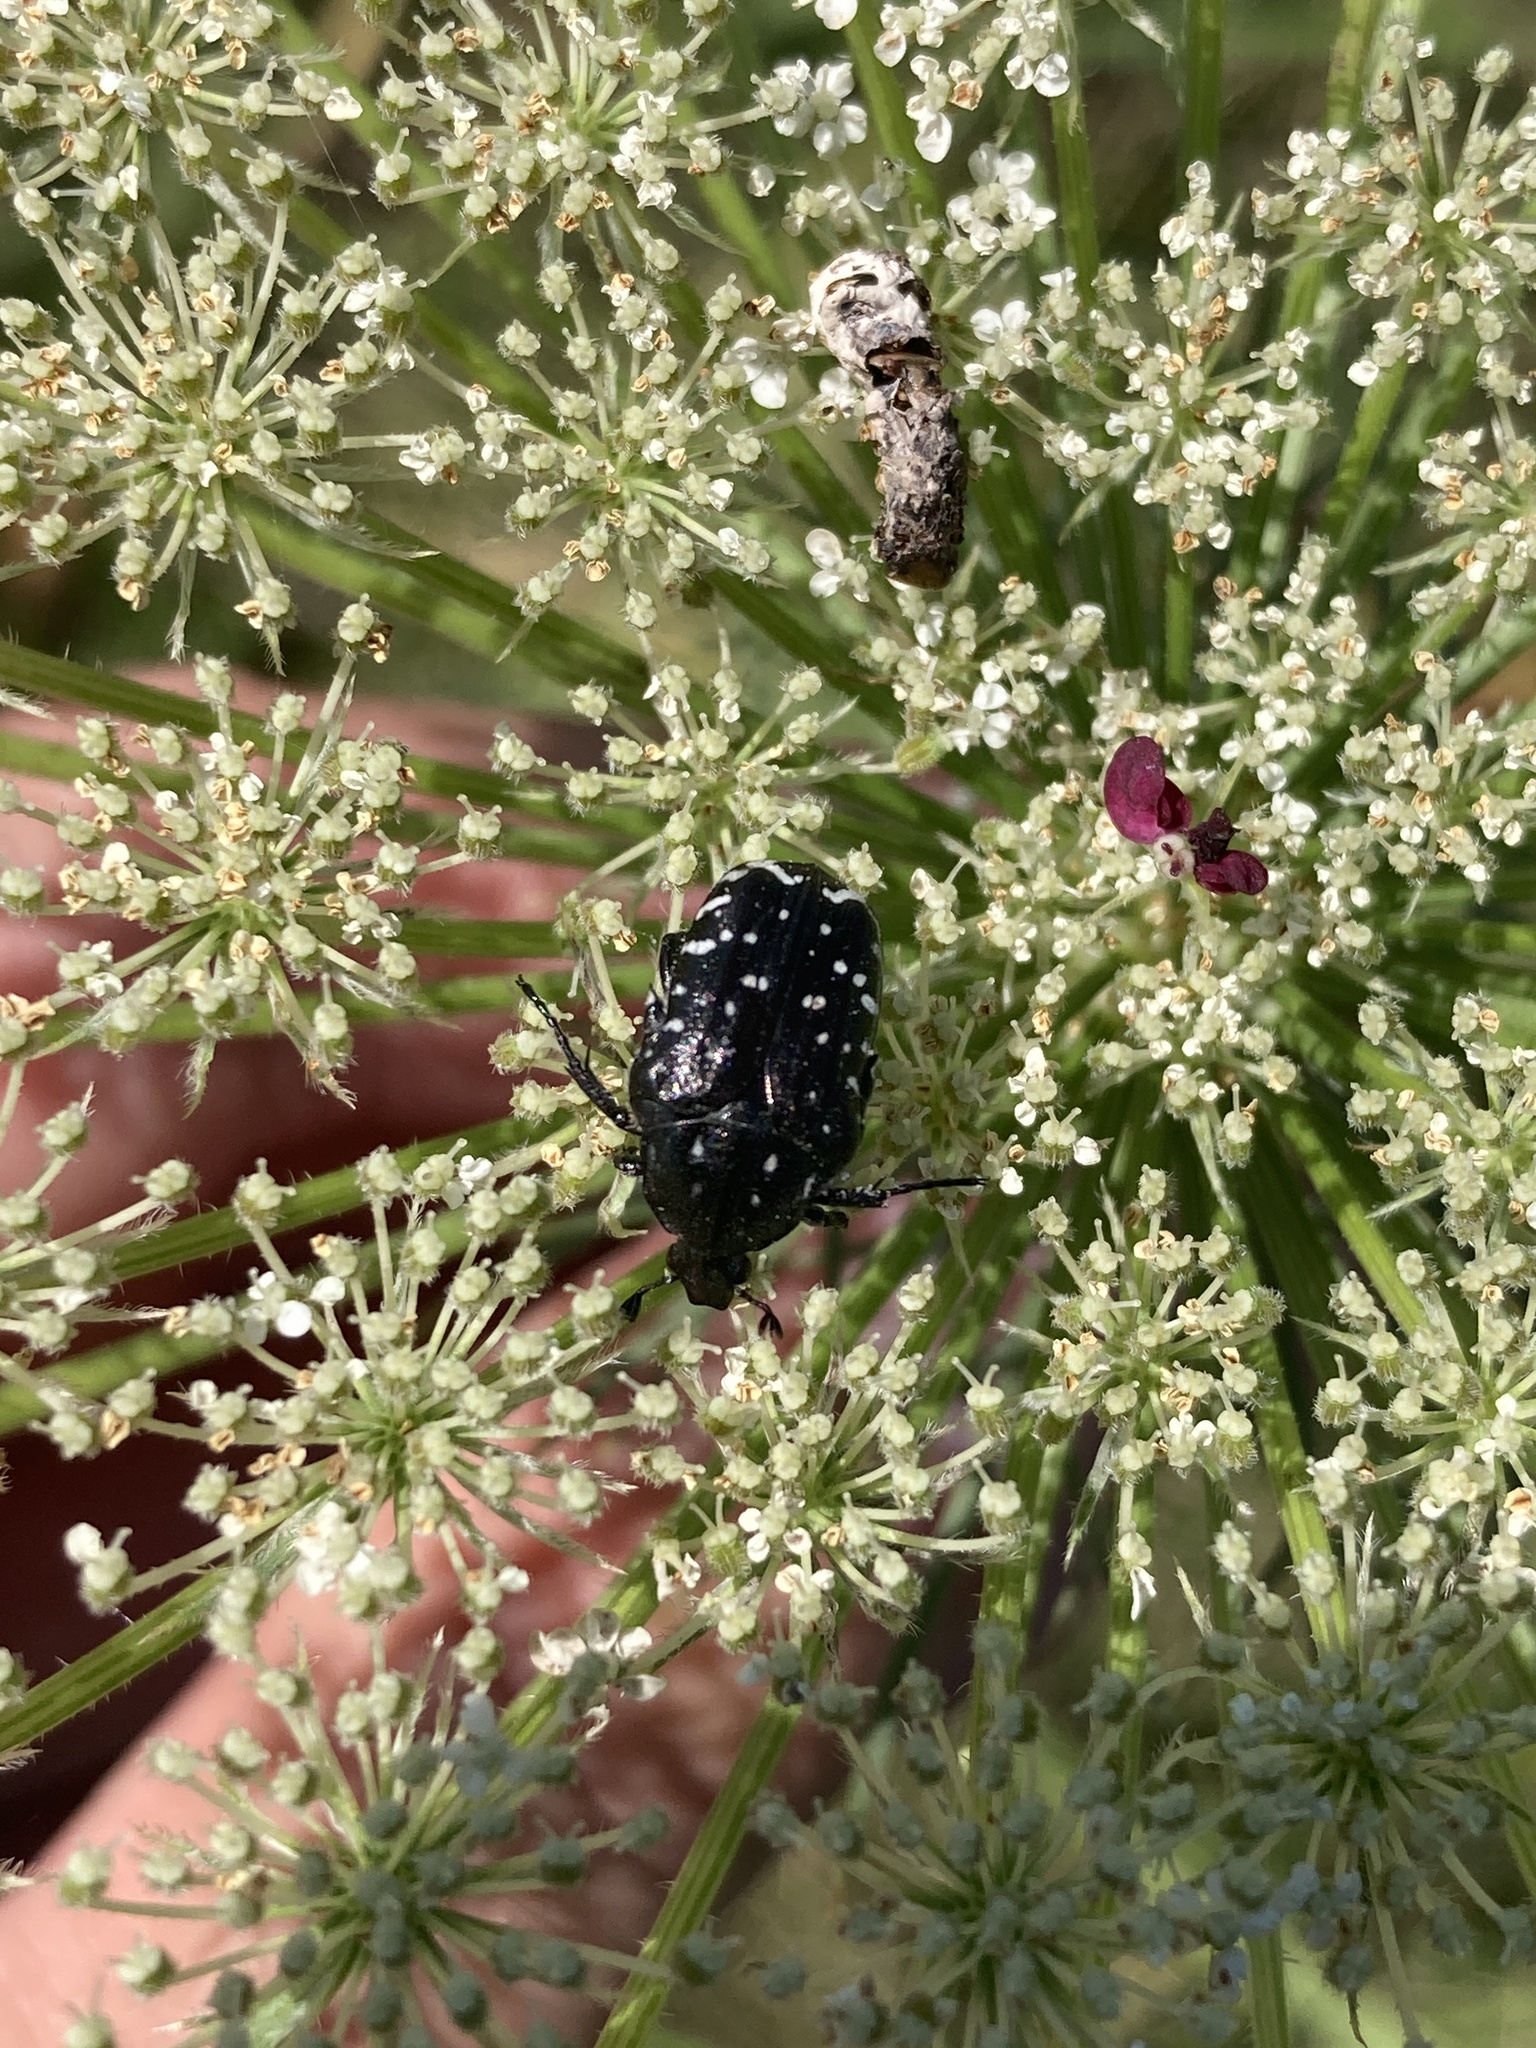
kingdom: Animalia
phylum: Arthropoda
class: Insecta
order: Coleoptera
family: Scarabaeidae
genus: Oxythyrea
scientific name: Oxythyrea funesta
